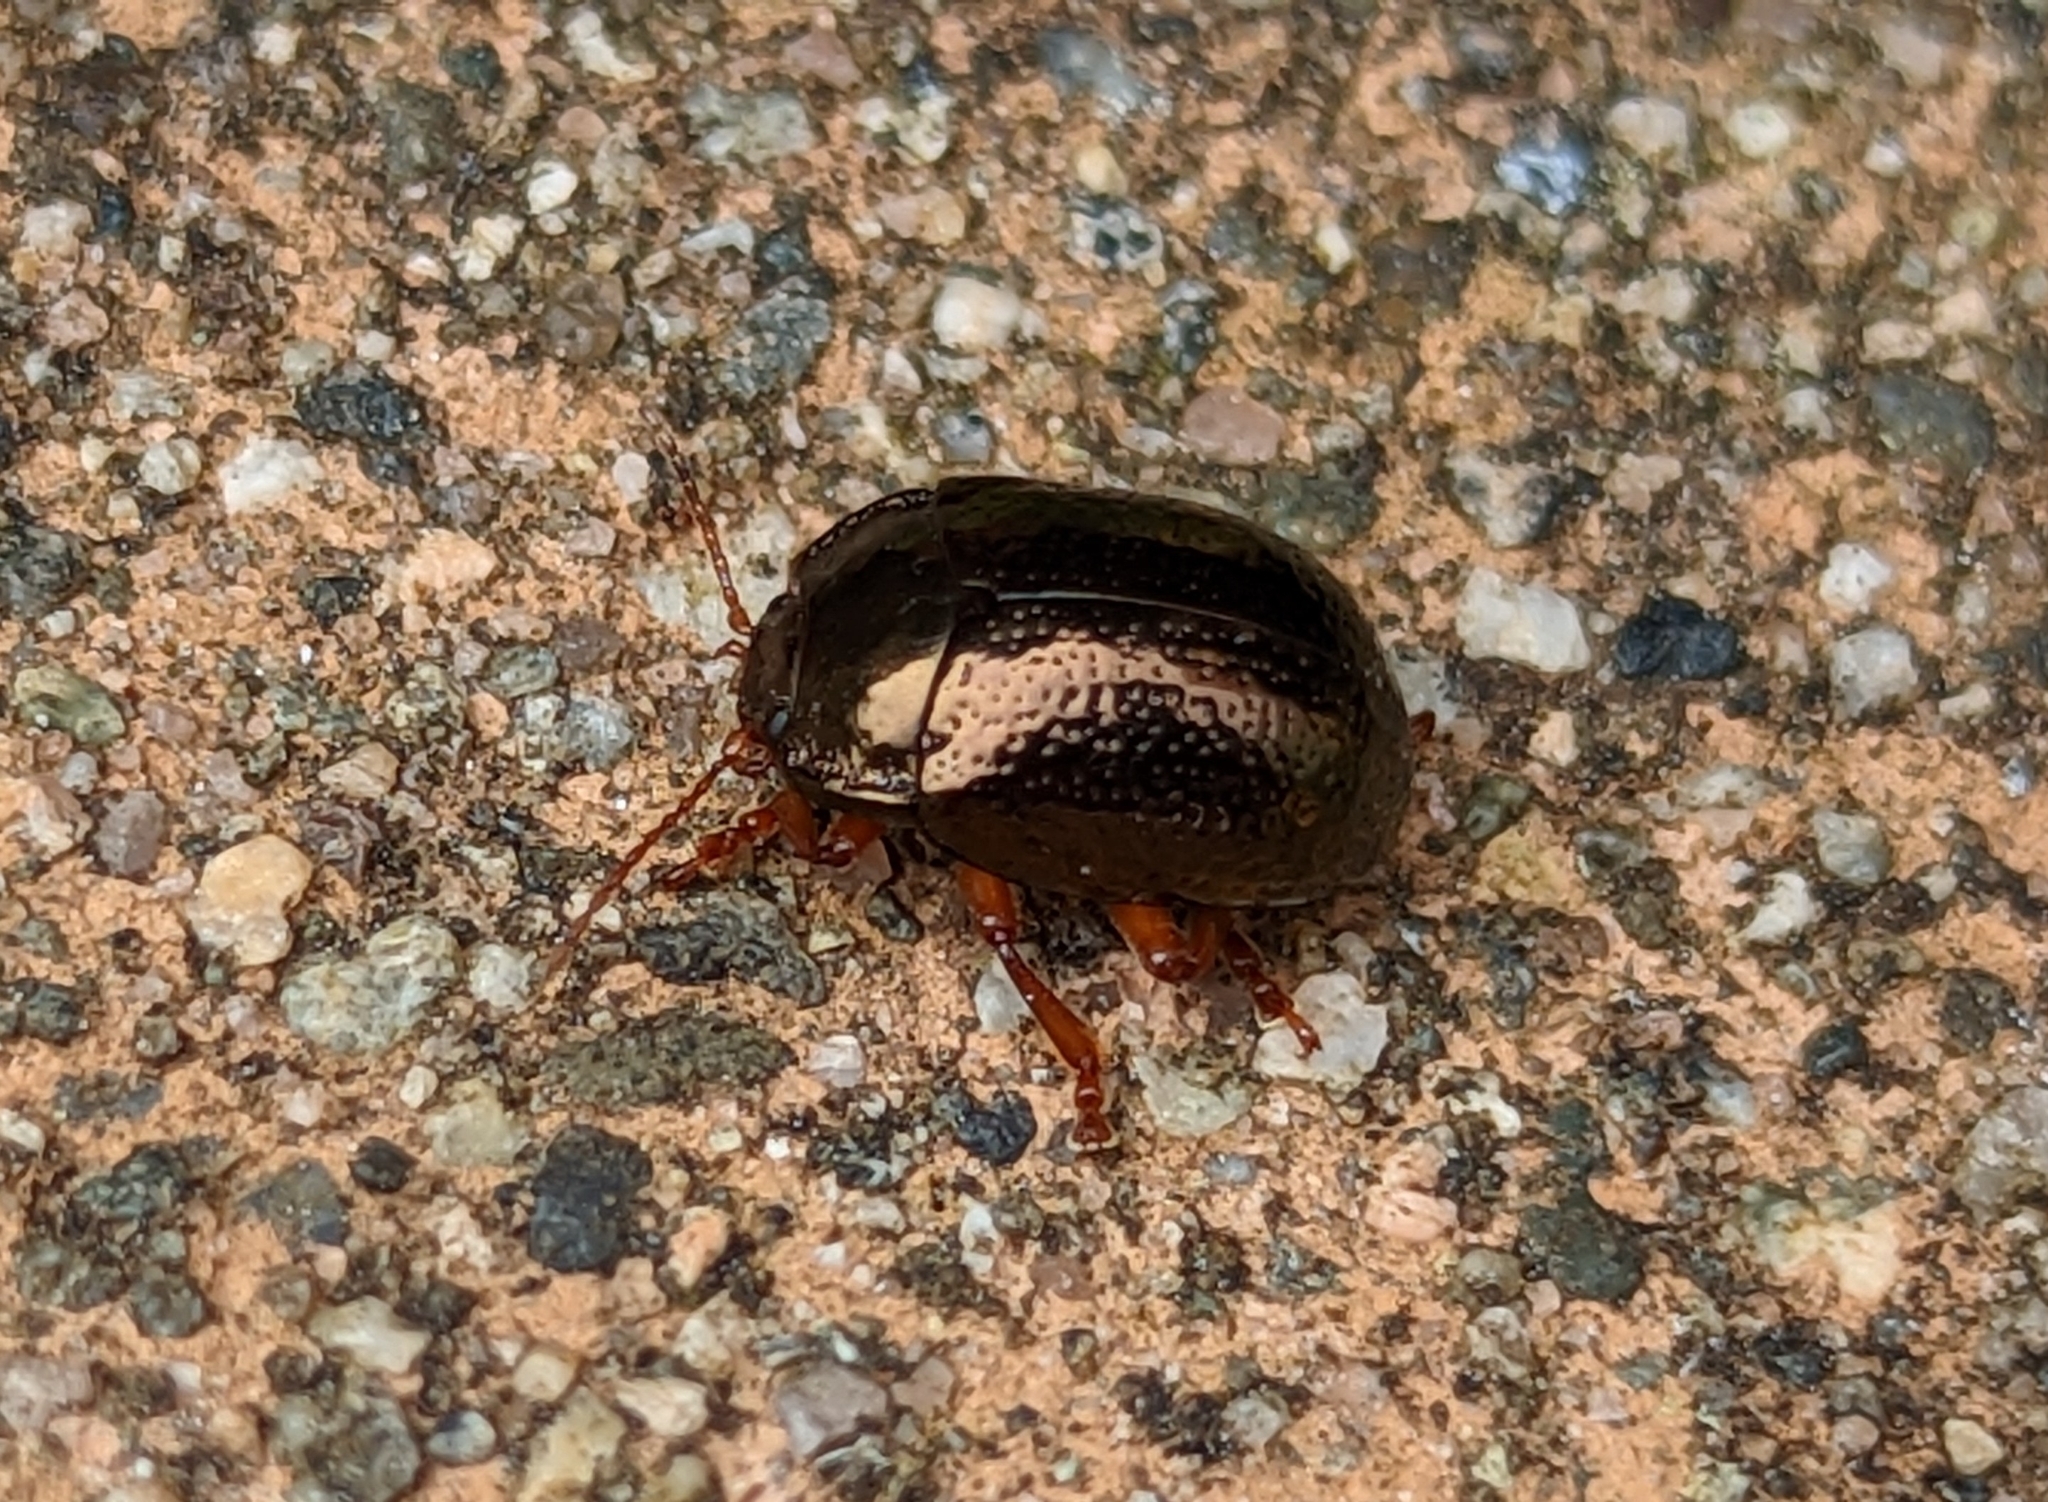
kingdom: Animalia
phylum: Arthropoda
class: Insecta
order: Coleoptera
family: Chrysomelidae
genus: Chrysolina
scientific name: Chrysolina bankii
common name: Leaf beetle
